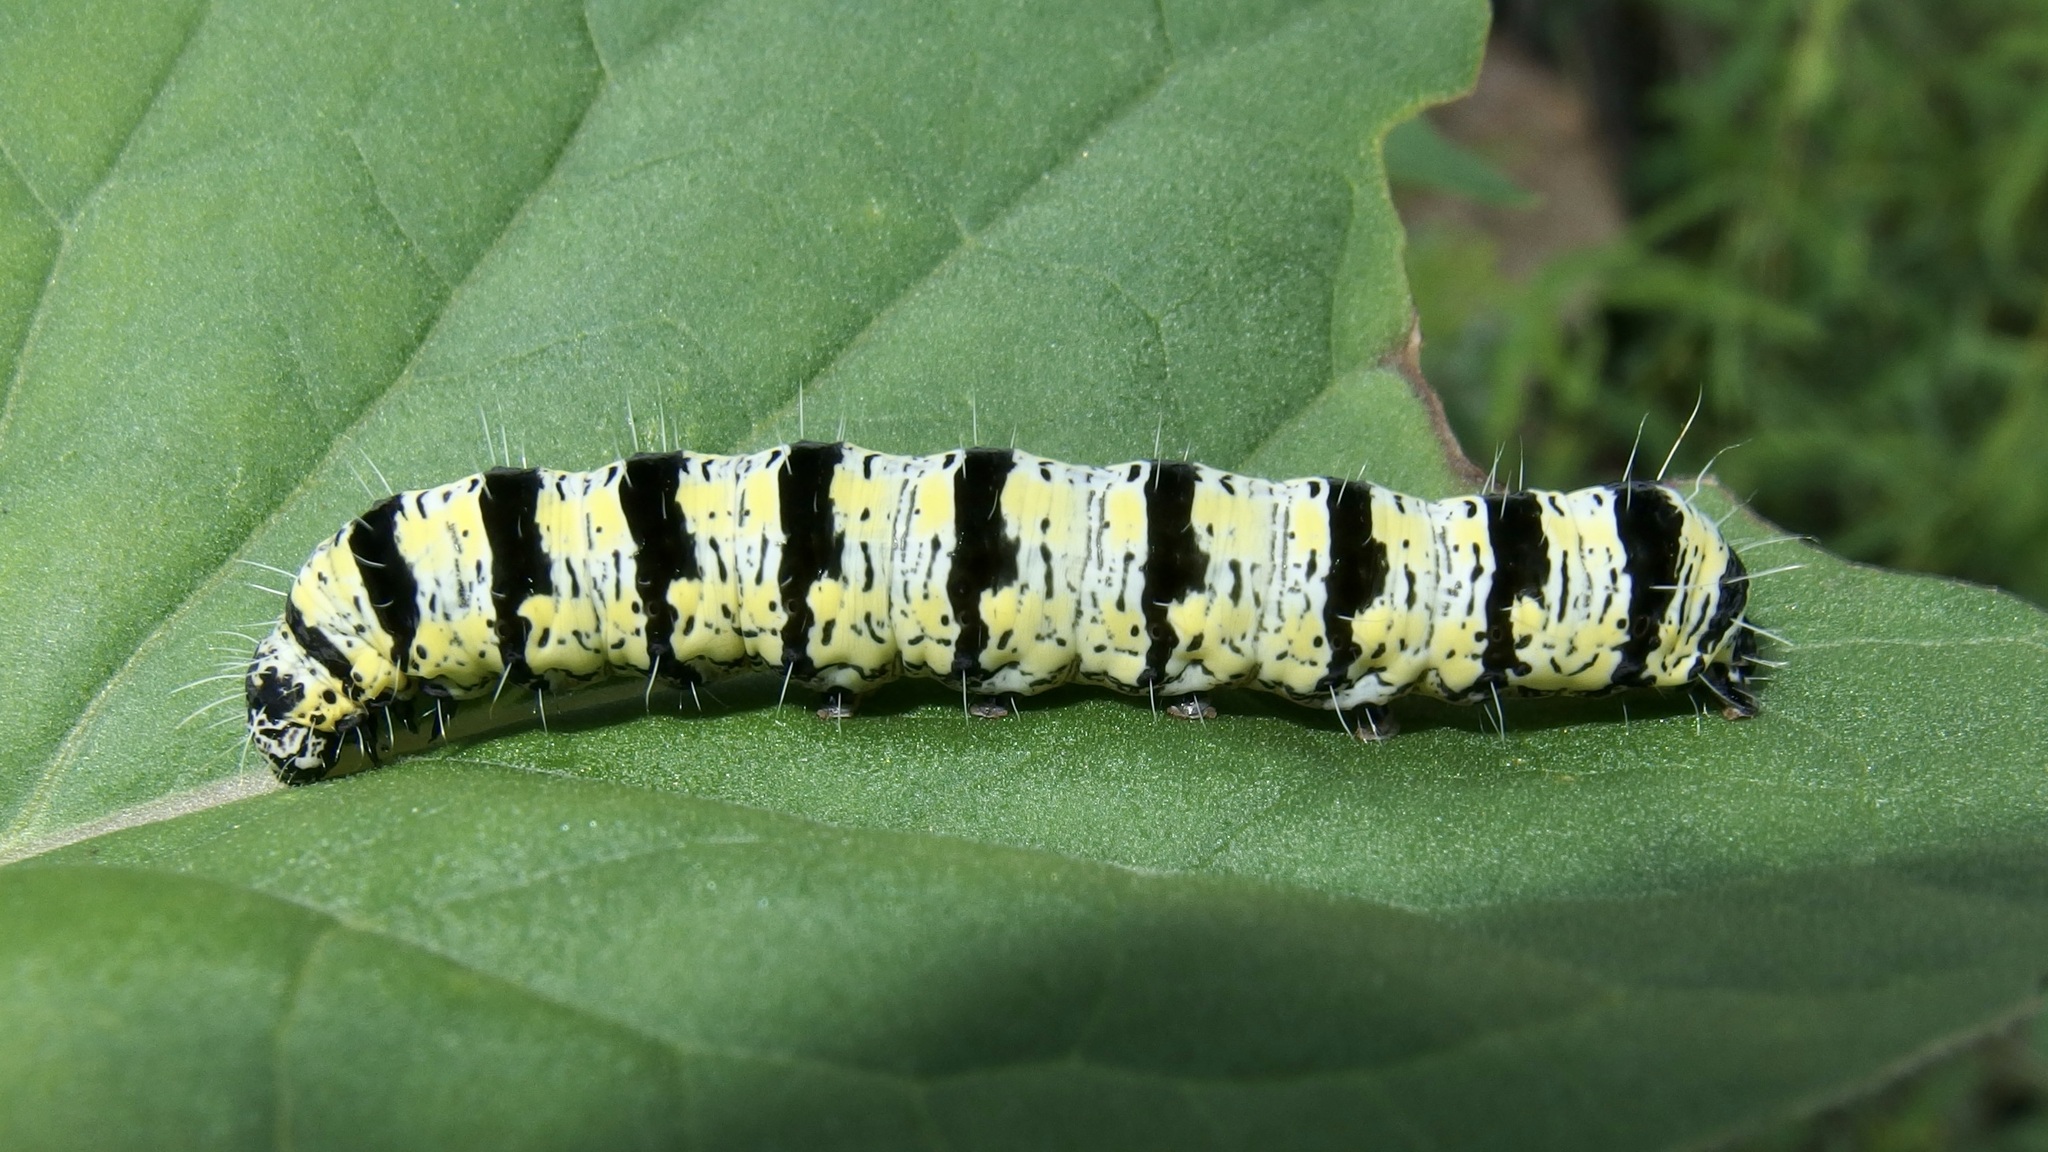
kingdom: Animalia
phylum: Arthropoda
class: Insecta
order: Lepidoptera
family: Noctuidae
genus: Alypiodes
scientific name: Alypiodes bimaculata
